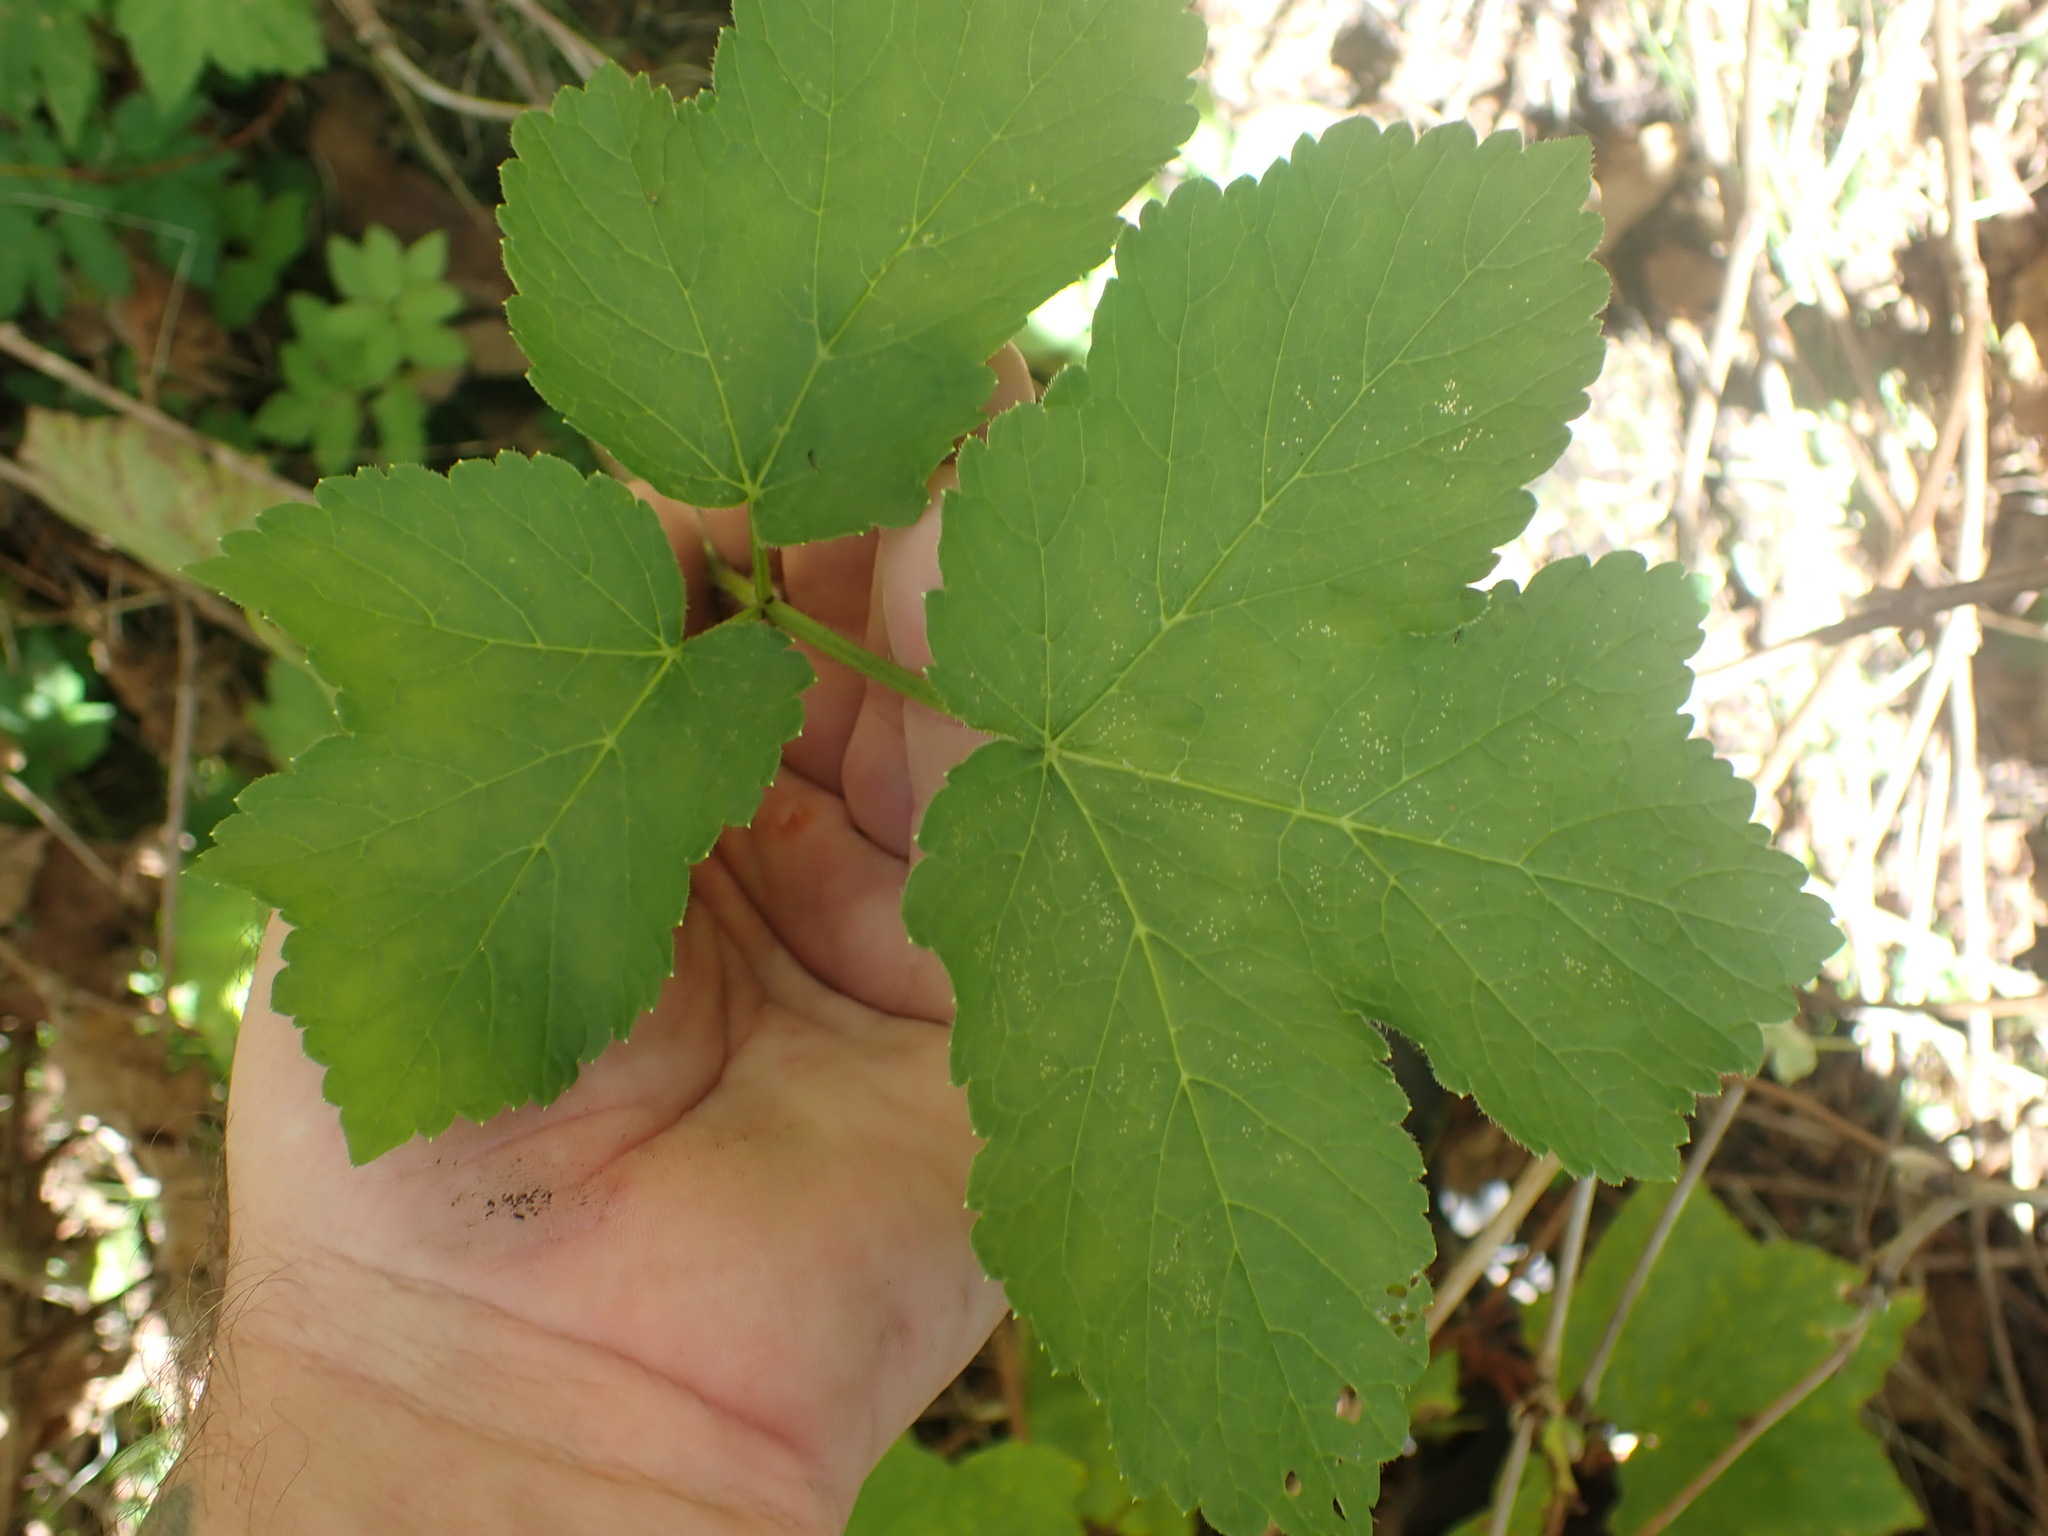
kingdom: Plantae
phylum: Tracheophyta
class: Magnoliopsida
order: Apiales
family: Apiaceae
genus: Heracleum
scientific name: Heracleum maximum
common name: American cow parsnip
